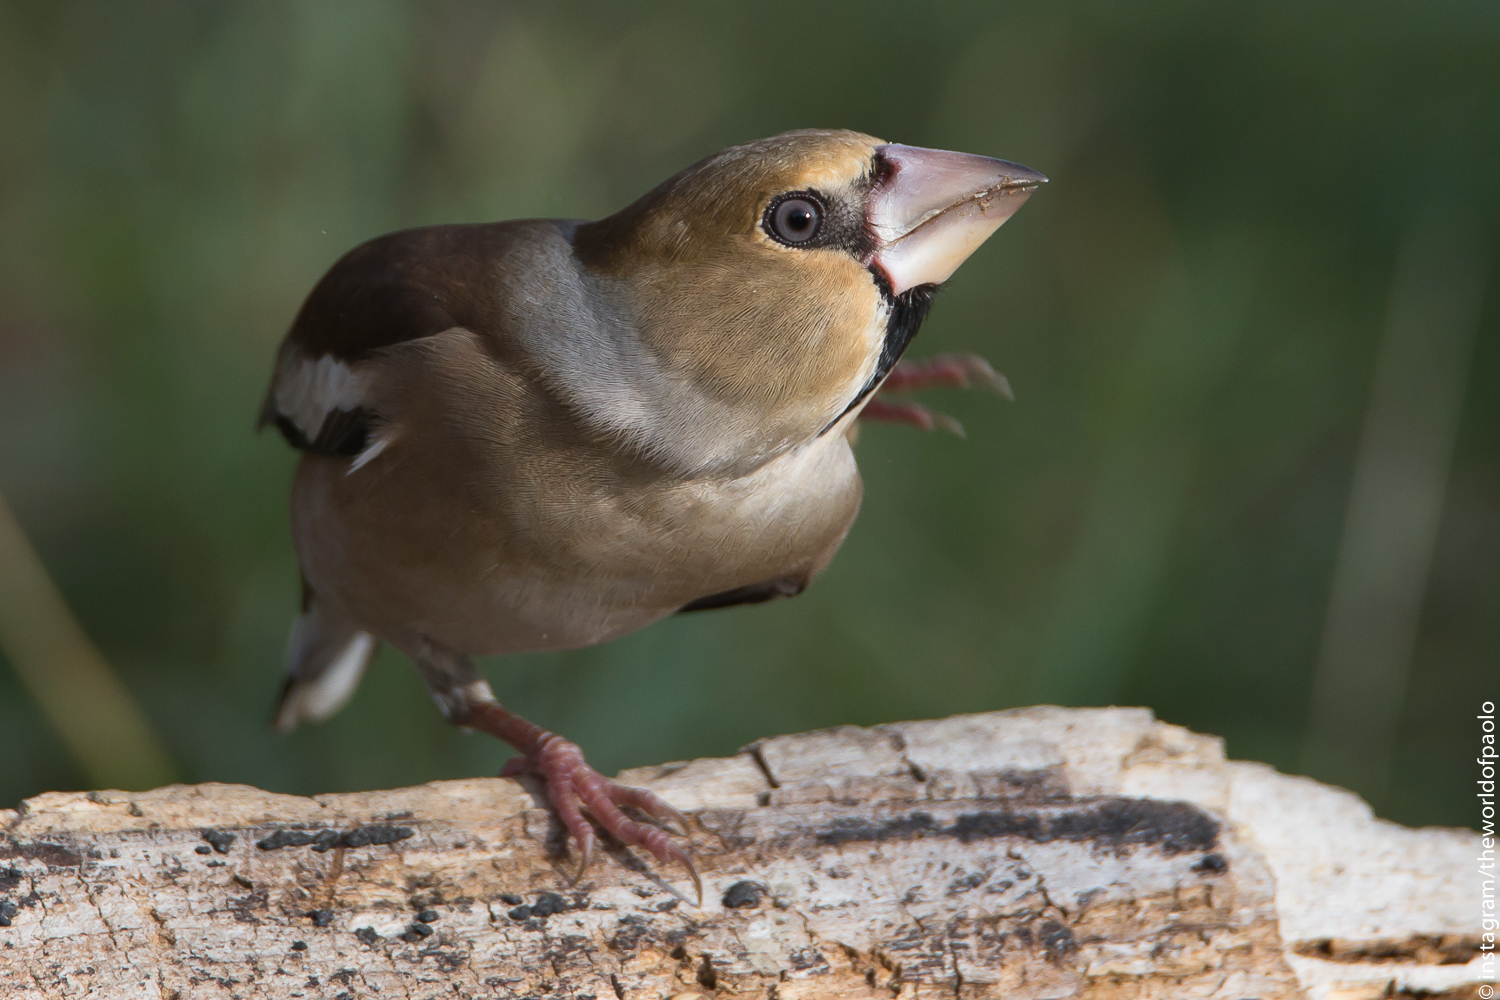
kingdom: Animalia
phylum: Chordata
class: Aves
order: Passeriformes
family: Fringillidae
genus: Coccothraustes
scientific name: Coccothraustes coccothraustes
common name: Hawfinch
